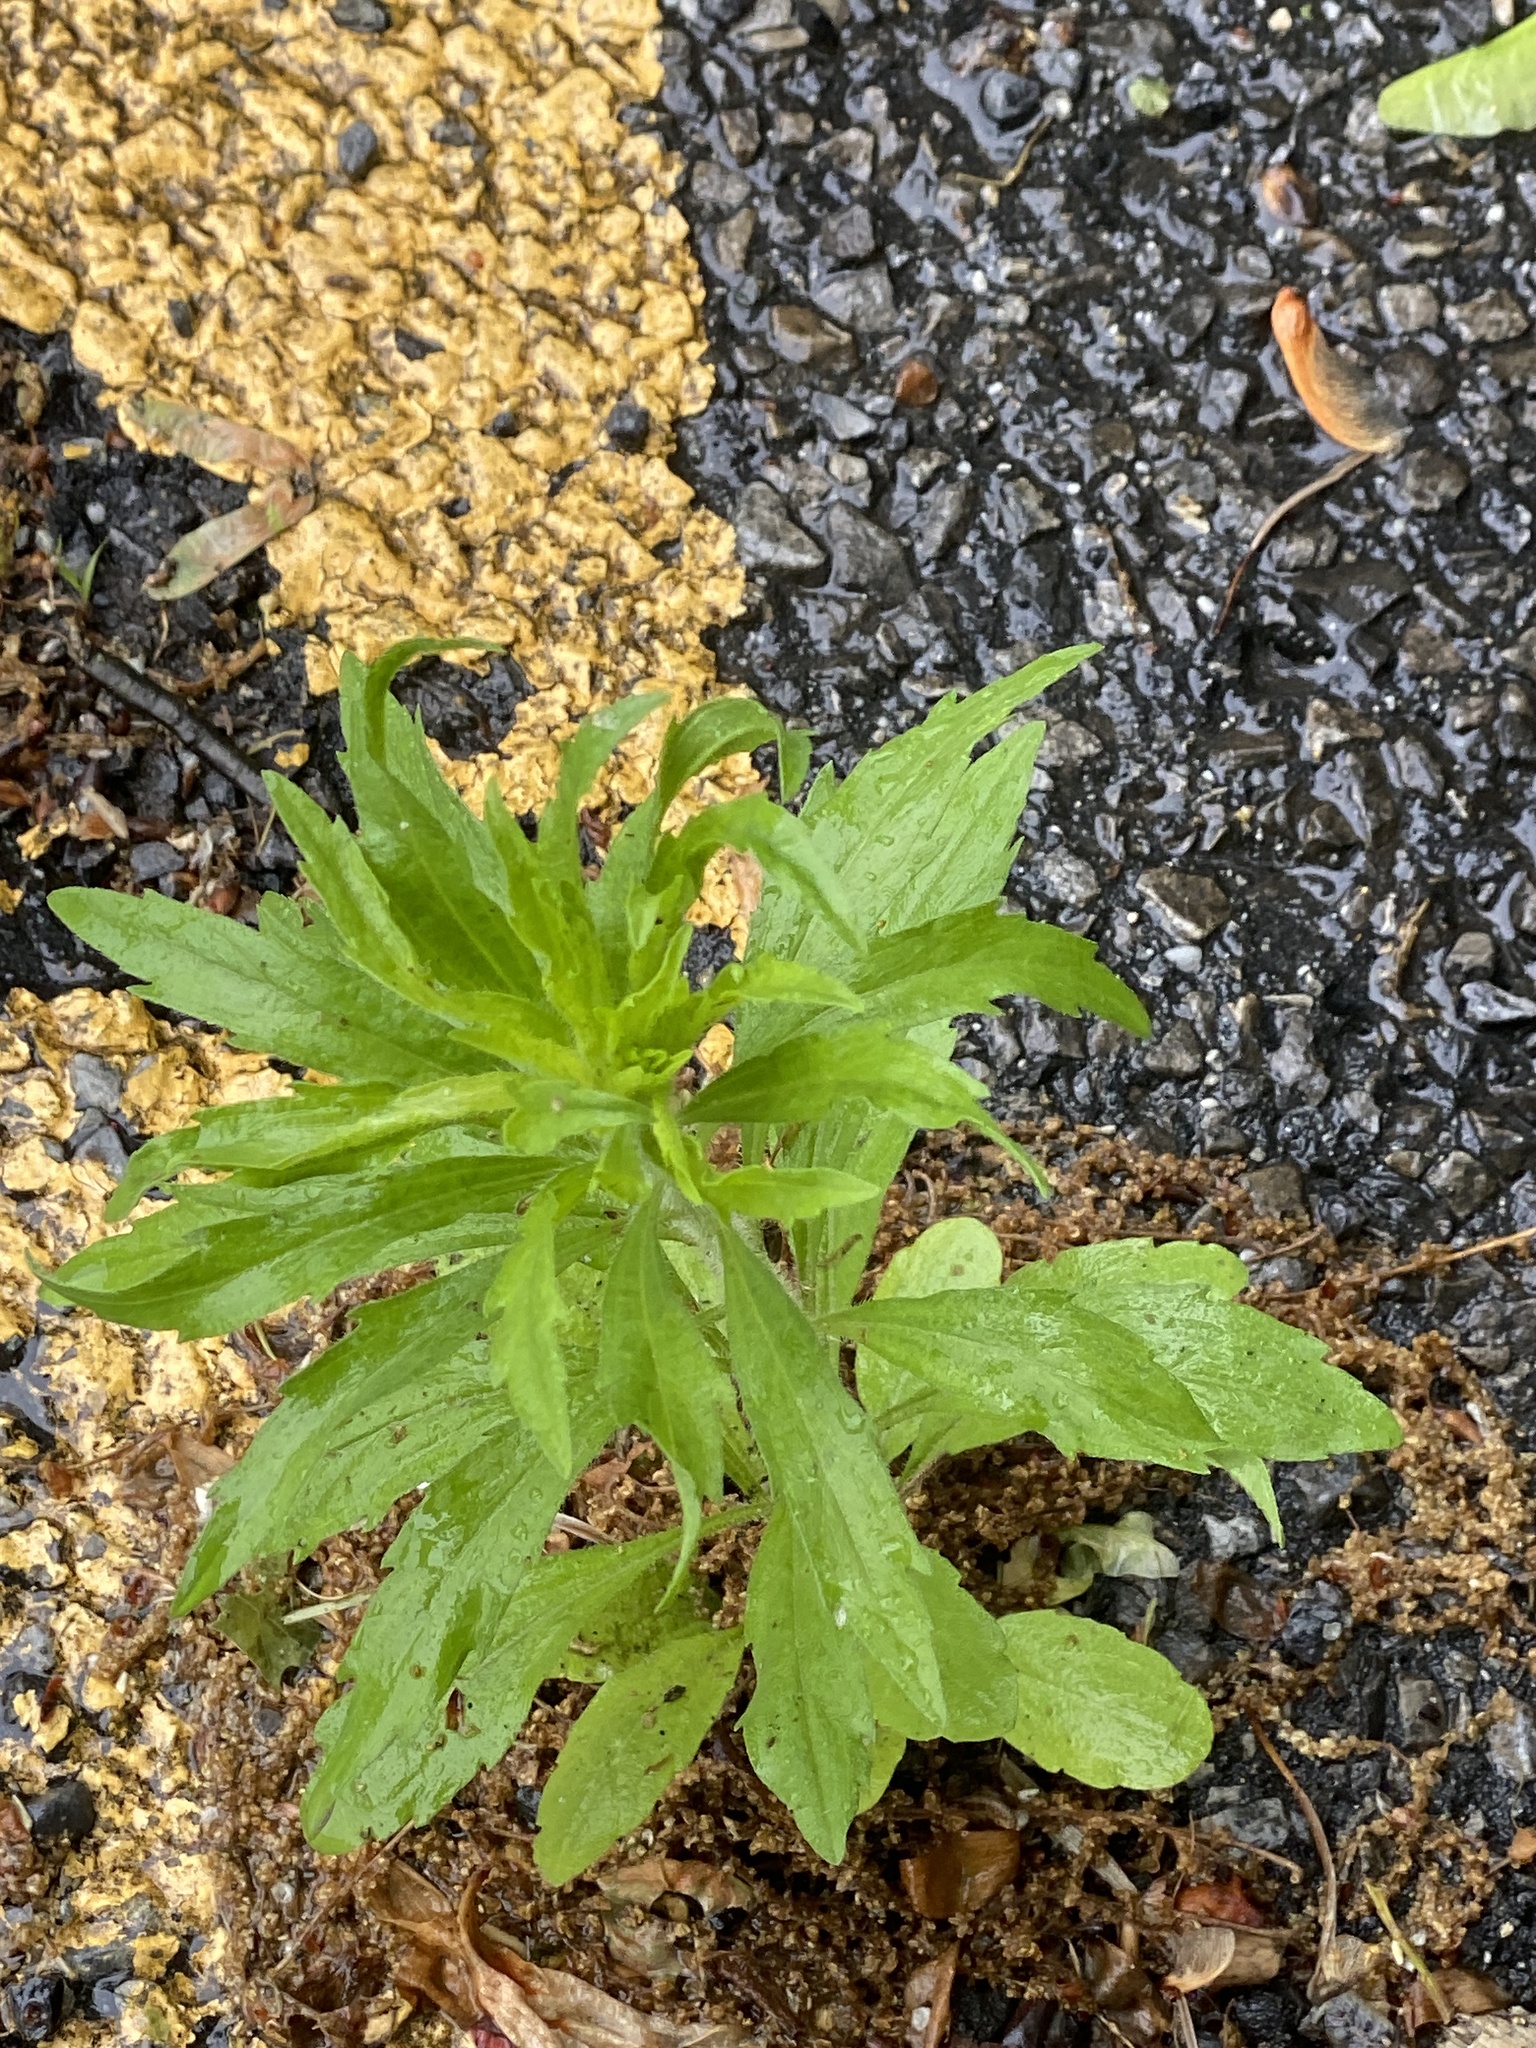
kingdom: Plantae
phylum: Tracheophyta
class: Magnoliopsida
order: Asterales
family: Asteraceae
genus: Erigeron
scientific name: Erigeron canadensis
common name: Canadian fleabane
